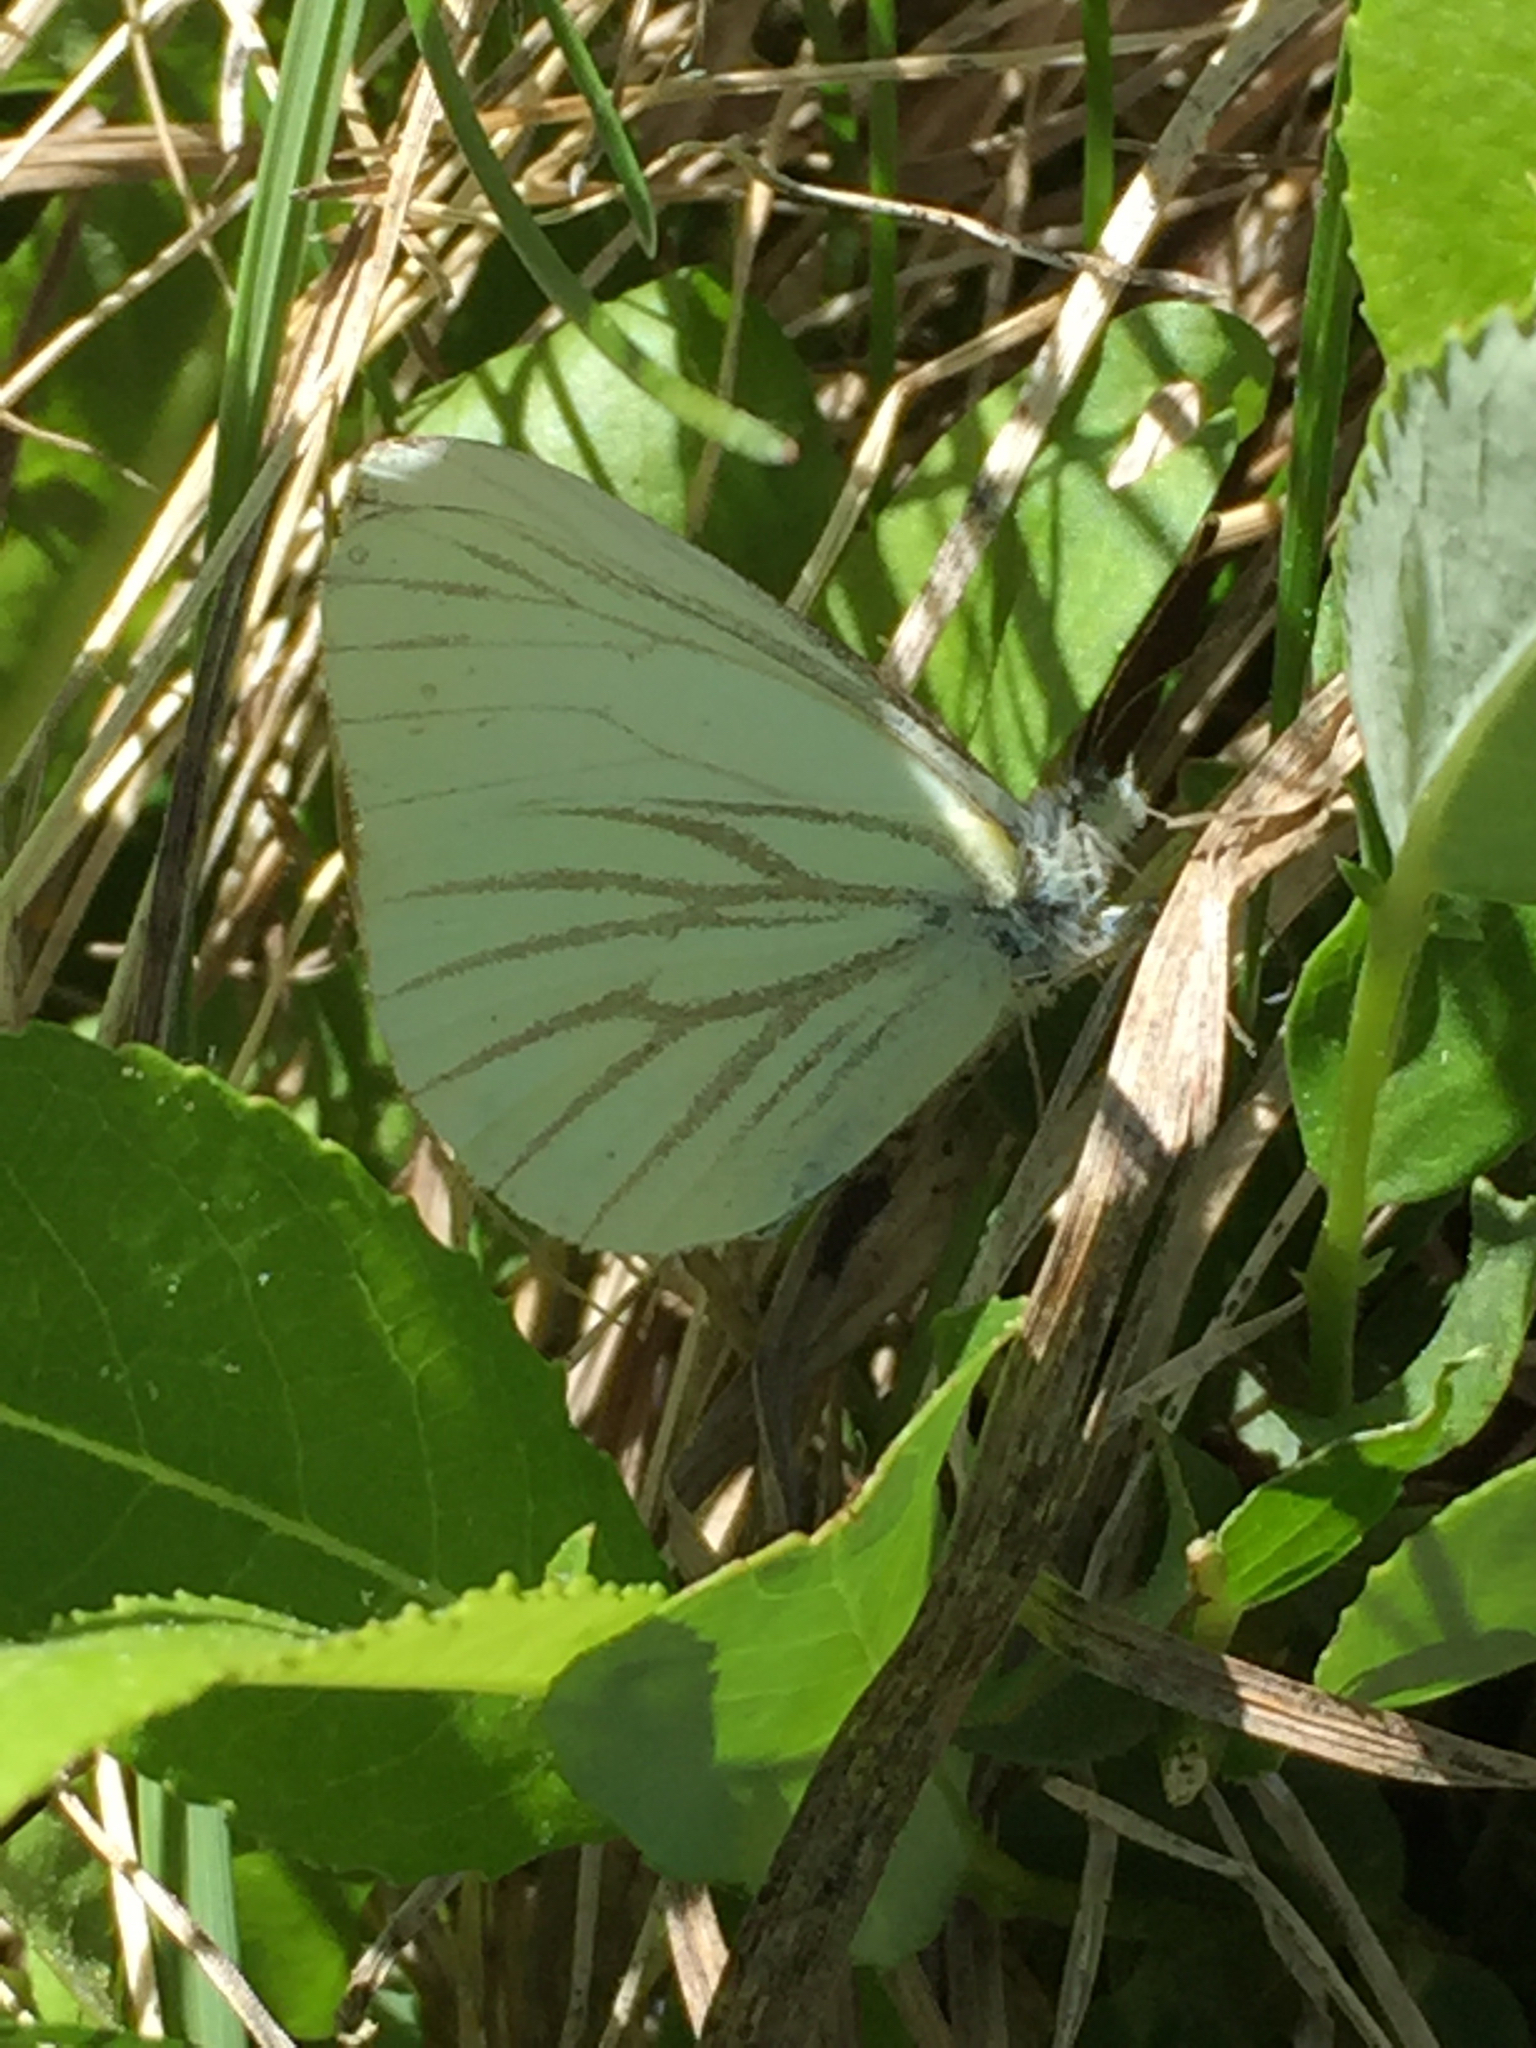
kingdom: Animalia
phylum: Arthropoda
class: Insecta
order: Lepidoptera
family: Pieridae
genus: Pieris
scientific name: Pieris marginalis
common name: Margined white
